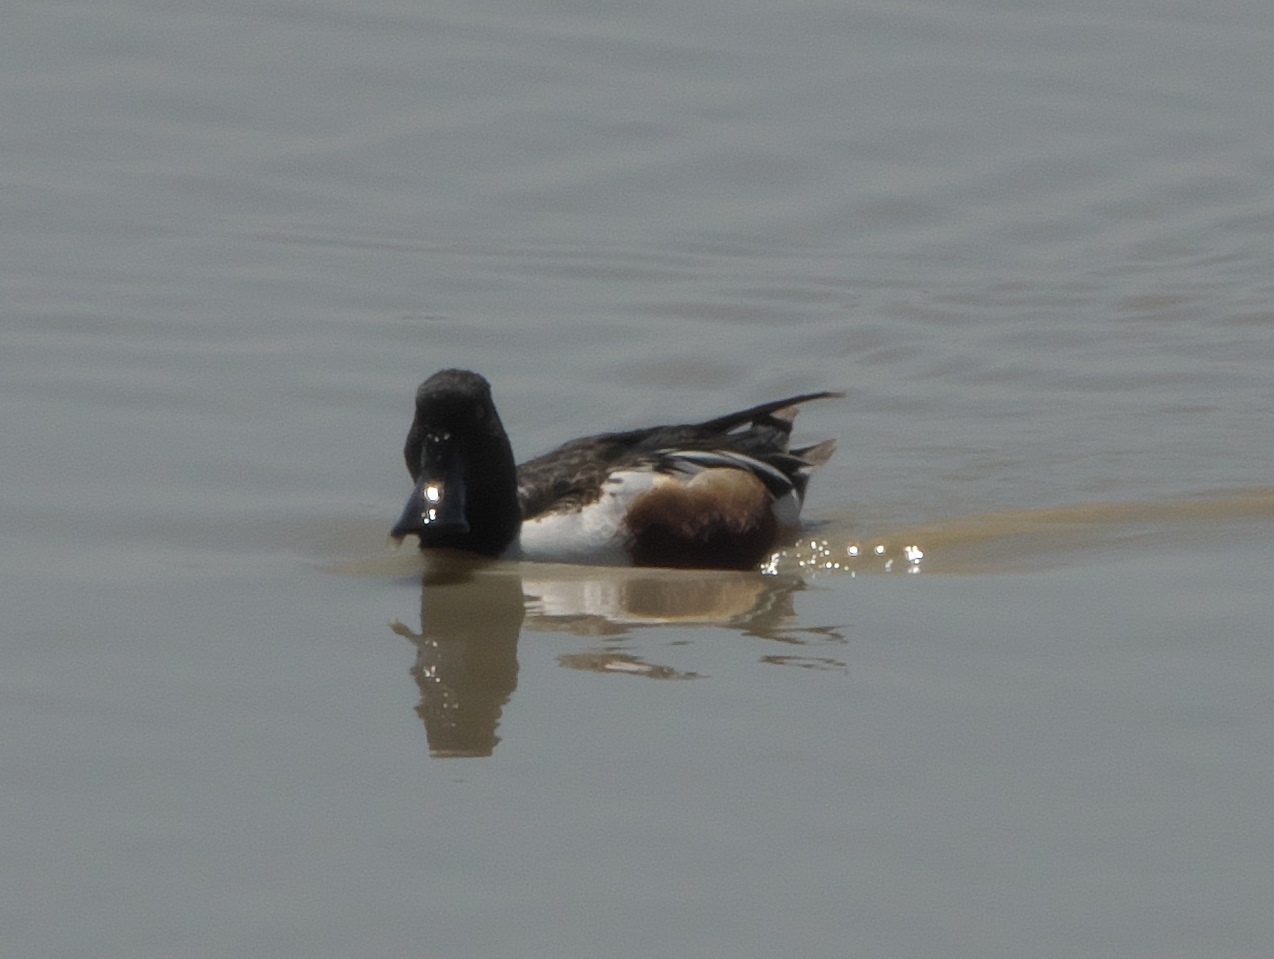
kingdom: Animalia
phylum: Chordata
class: Aves
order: Anseriformes
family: Anatidae
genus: Spatula
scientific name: Spatula clypeata
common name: Northern shoveler
